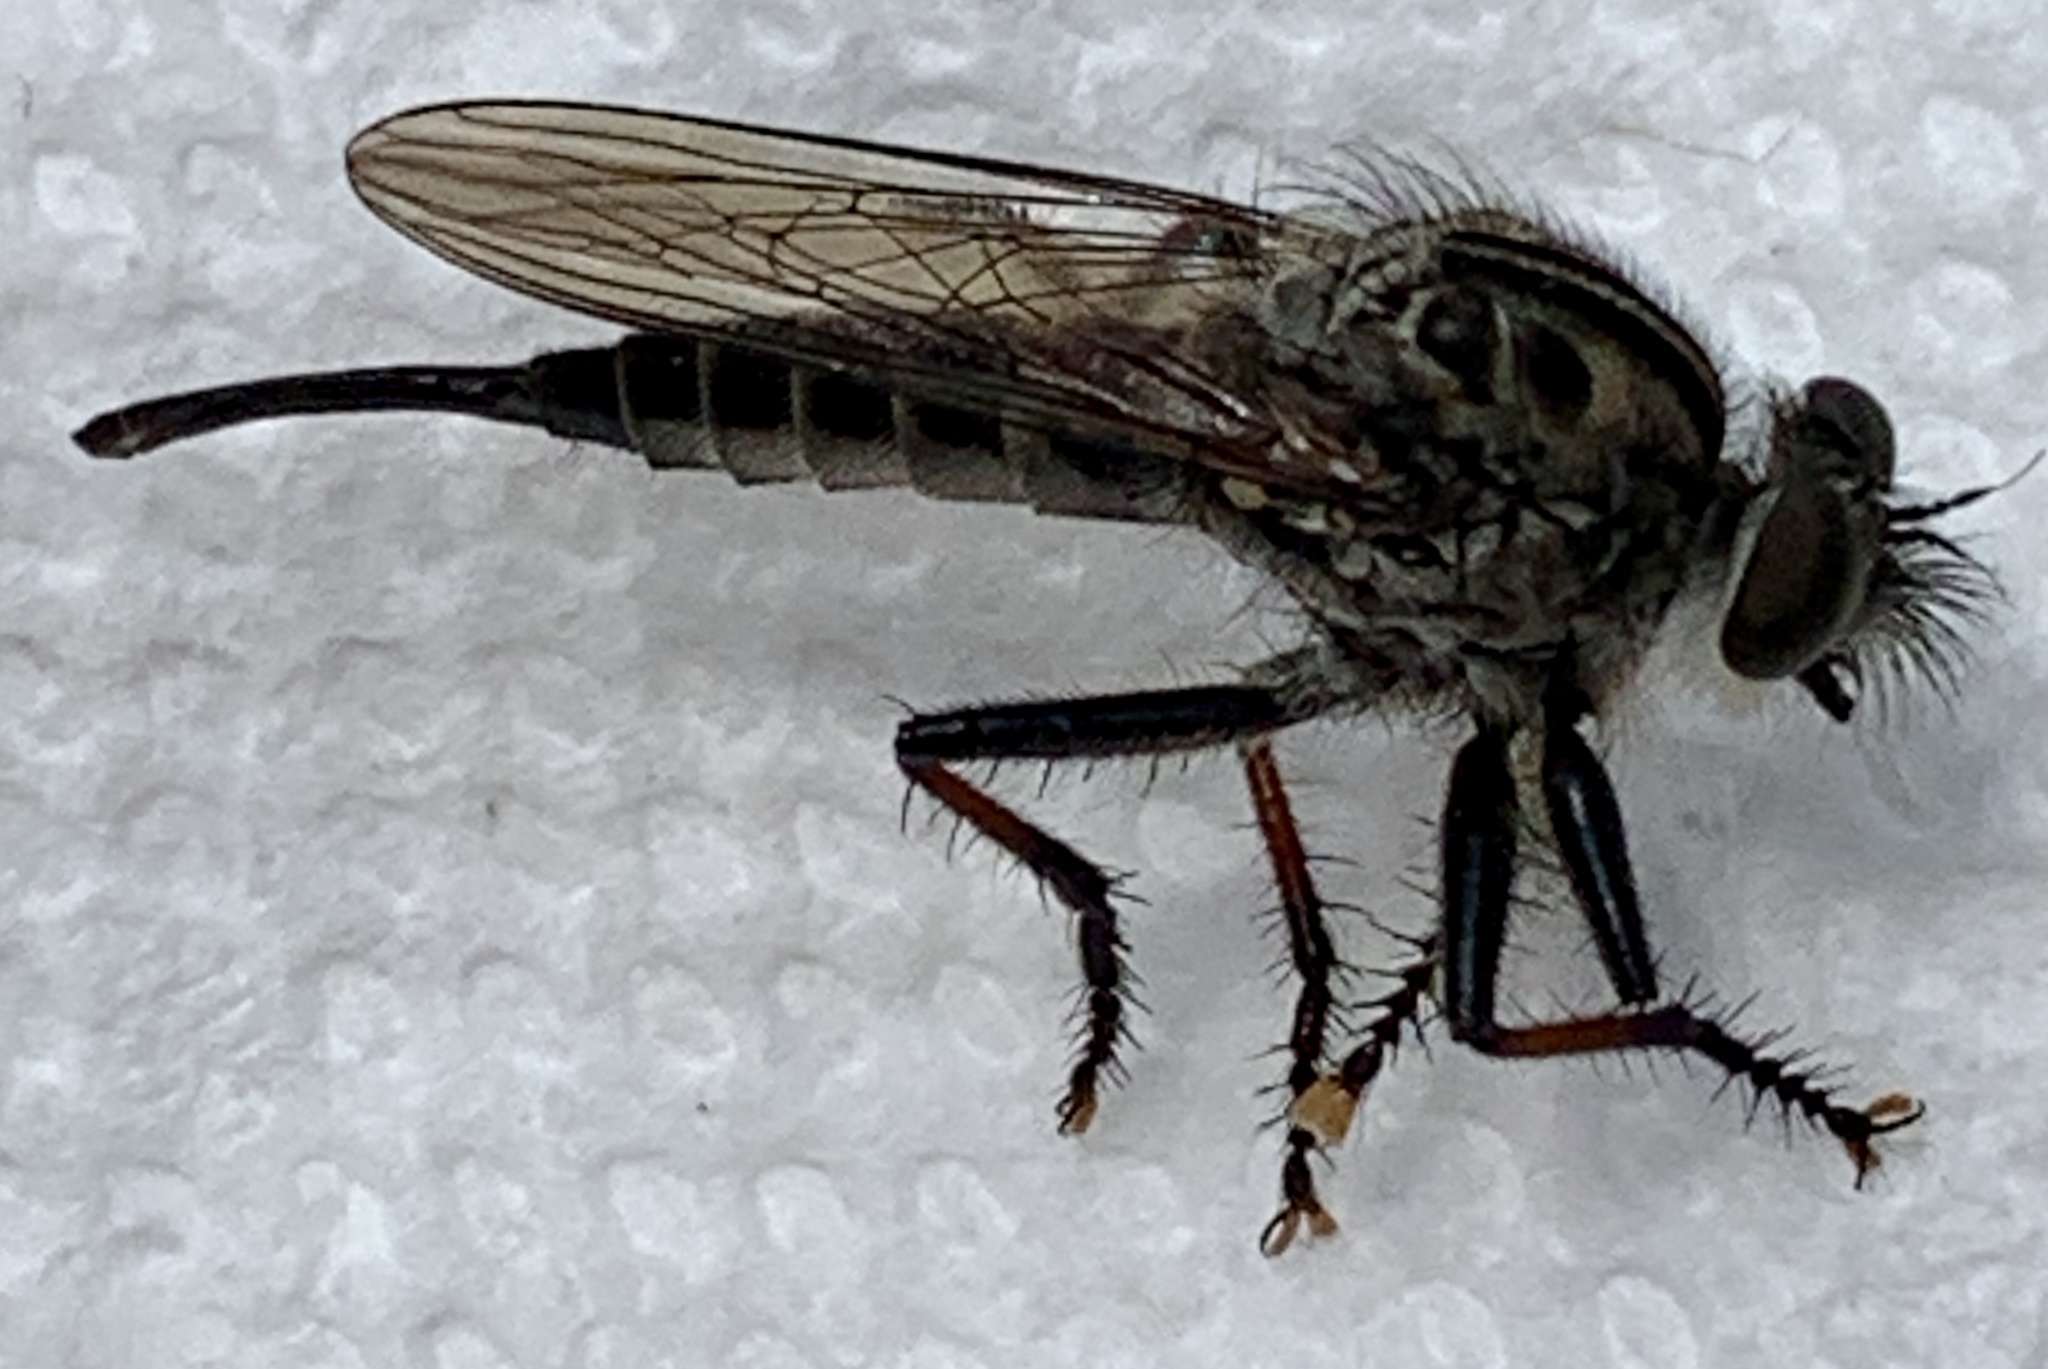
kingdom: Animalia
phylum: Arthropoda
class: Insecta
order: Diptera
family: Asilidae
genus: Efferia
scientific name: Efferia aestuans
